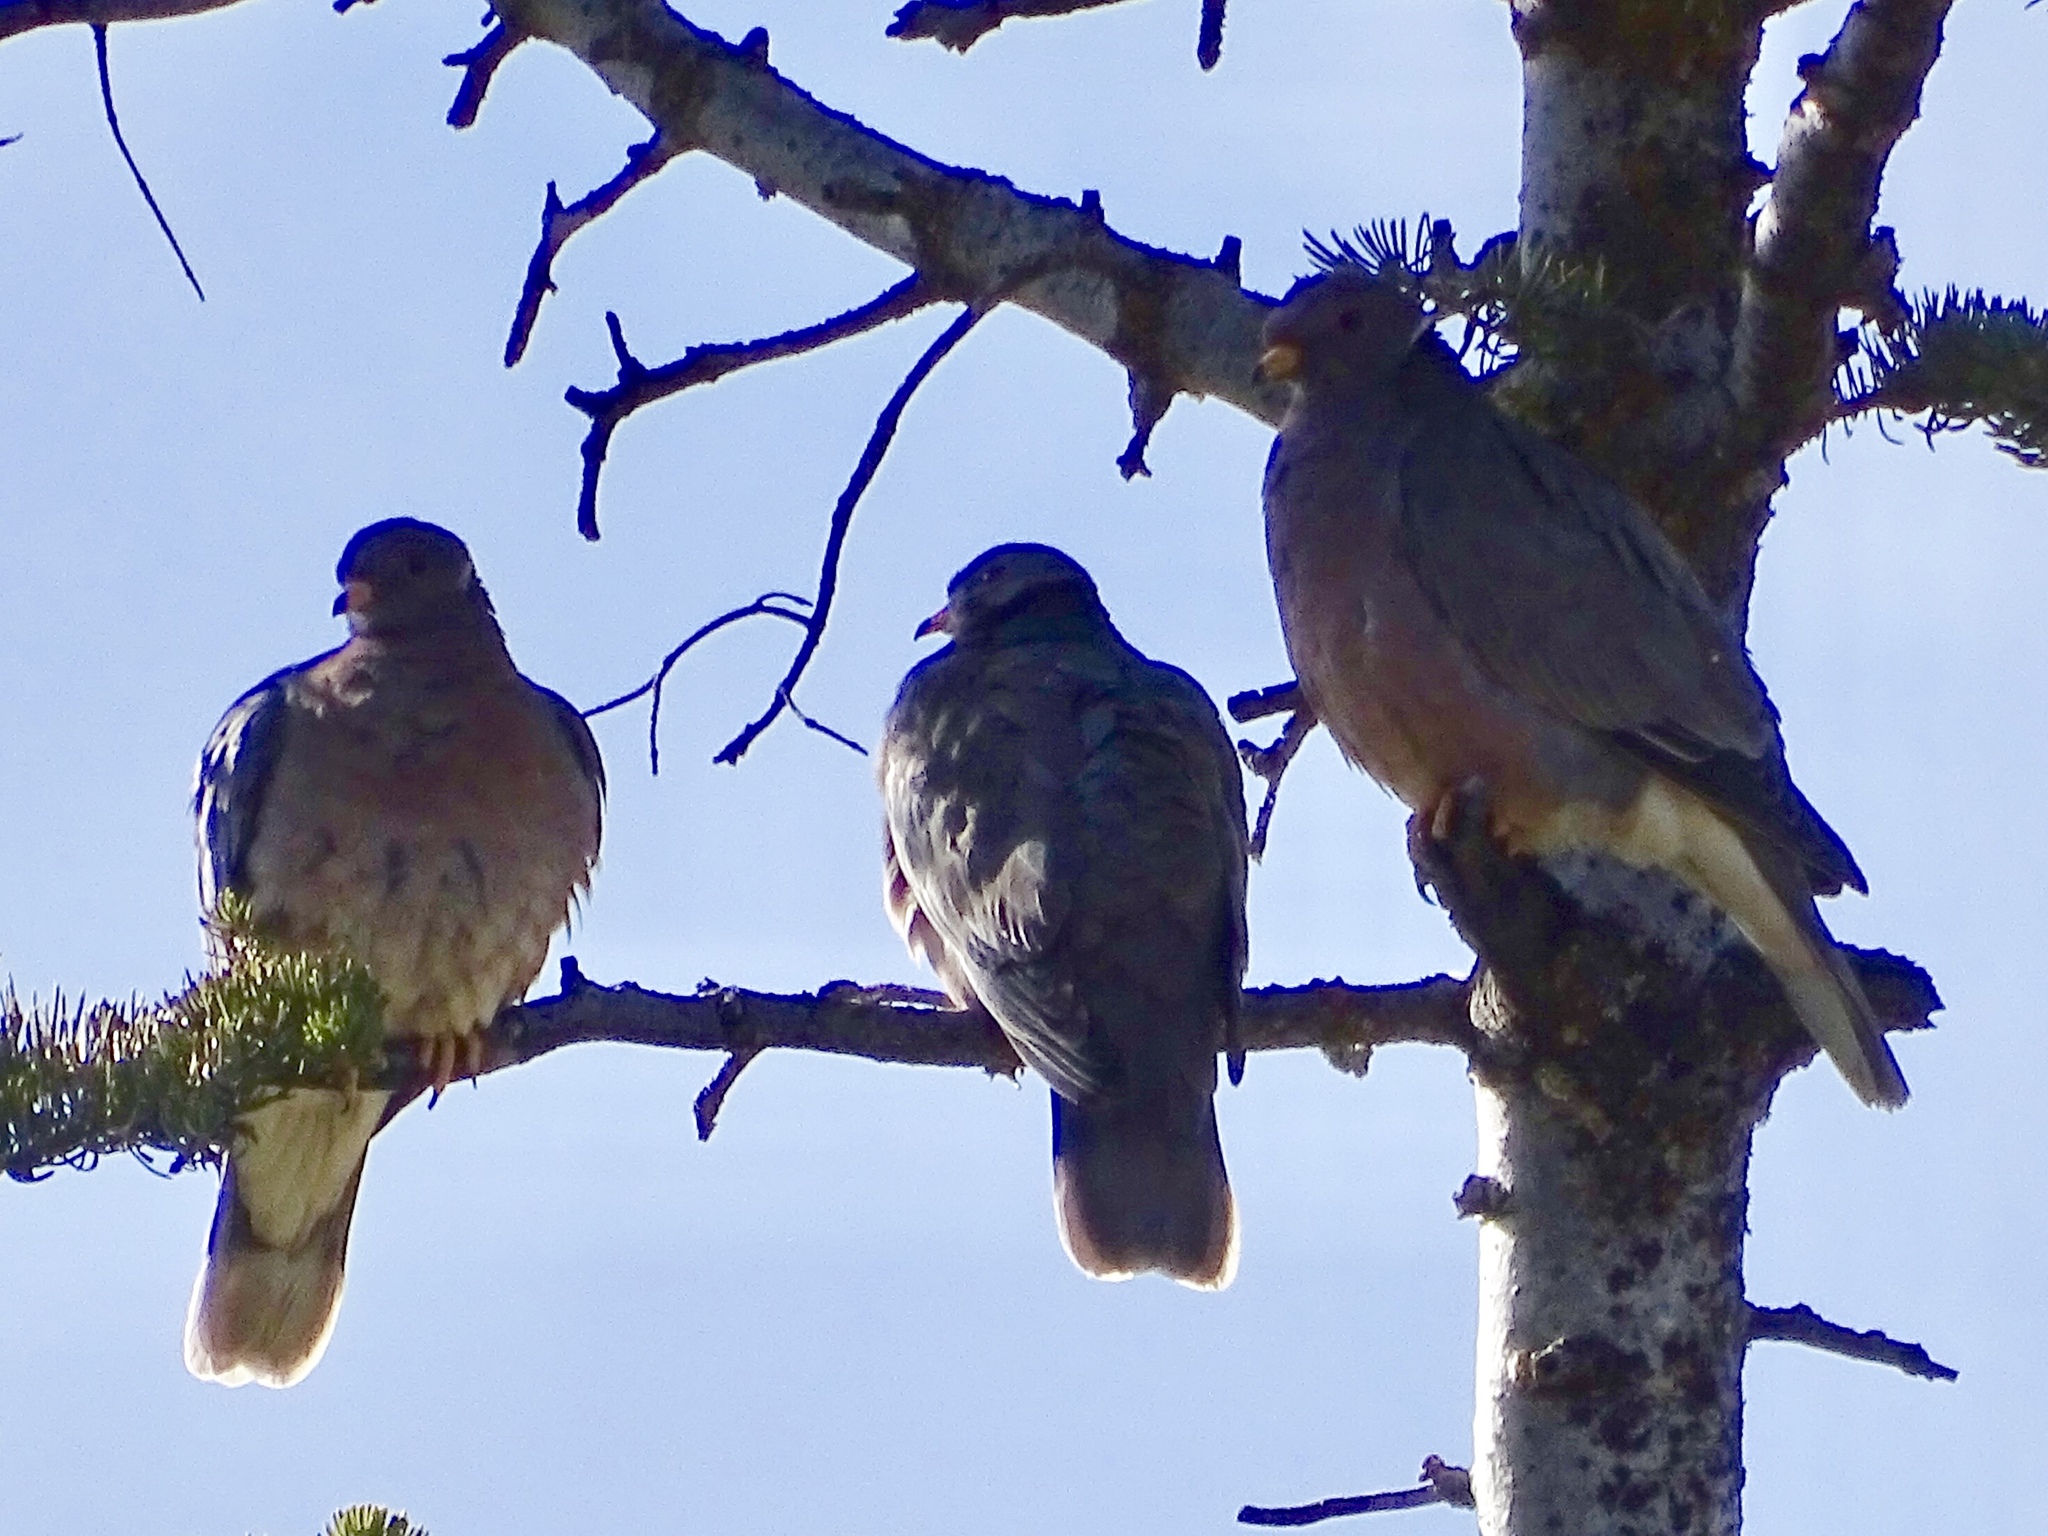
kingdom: Animalia
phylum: Chordata
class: Aves
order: Columbiformes
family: Columbidae
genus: Patagioenas
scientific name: Patagioenas fasciata
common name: Band-tailed pigeon
